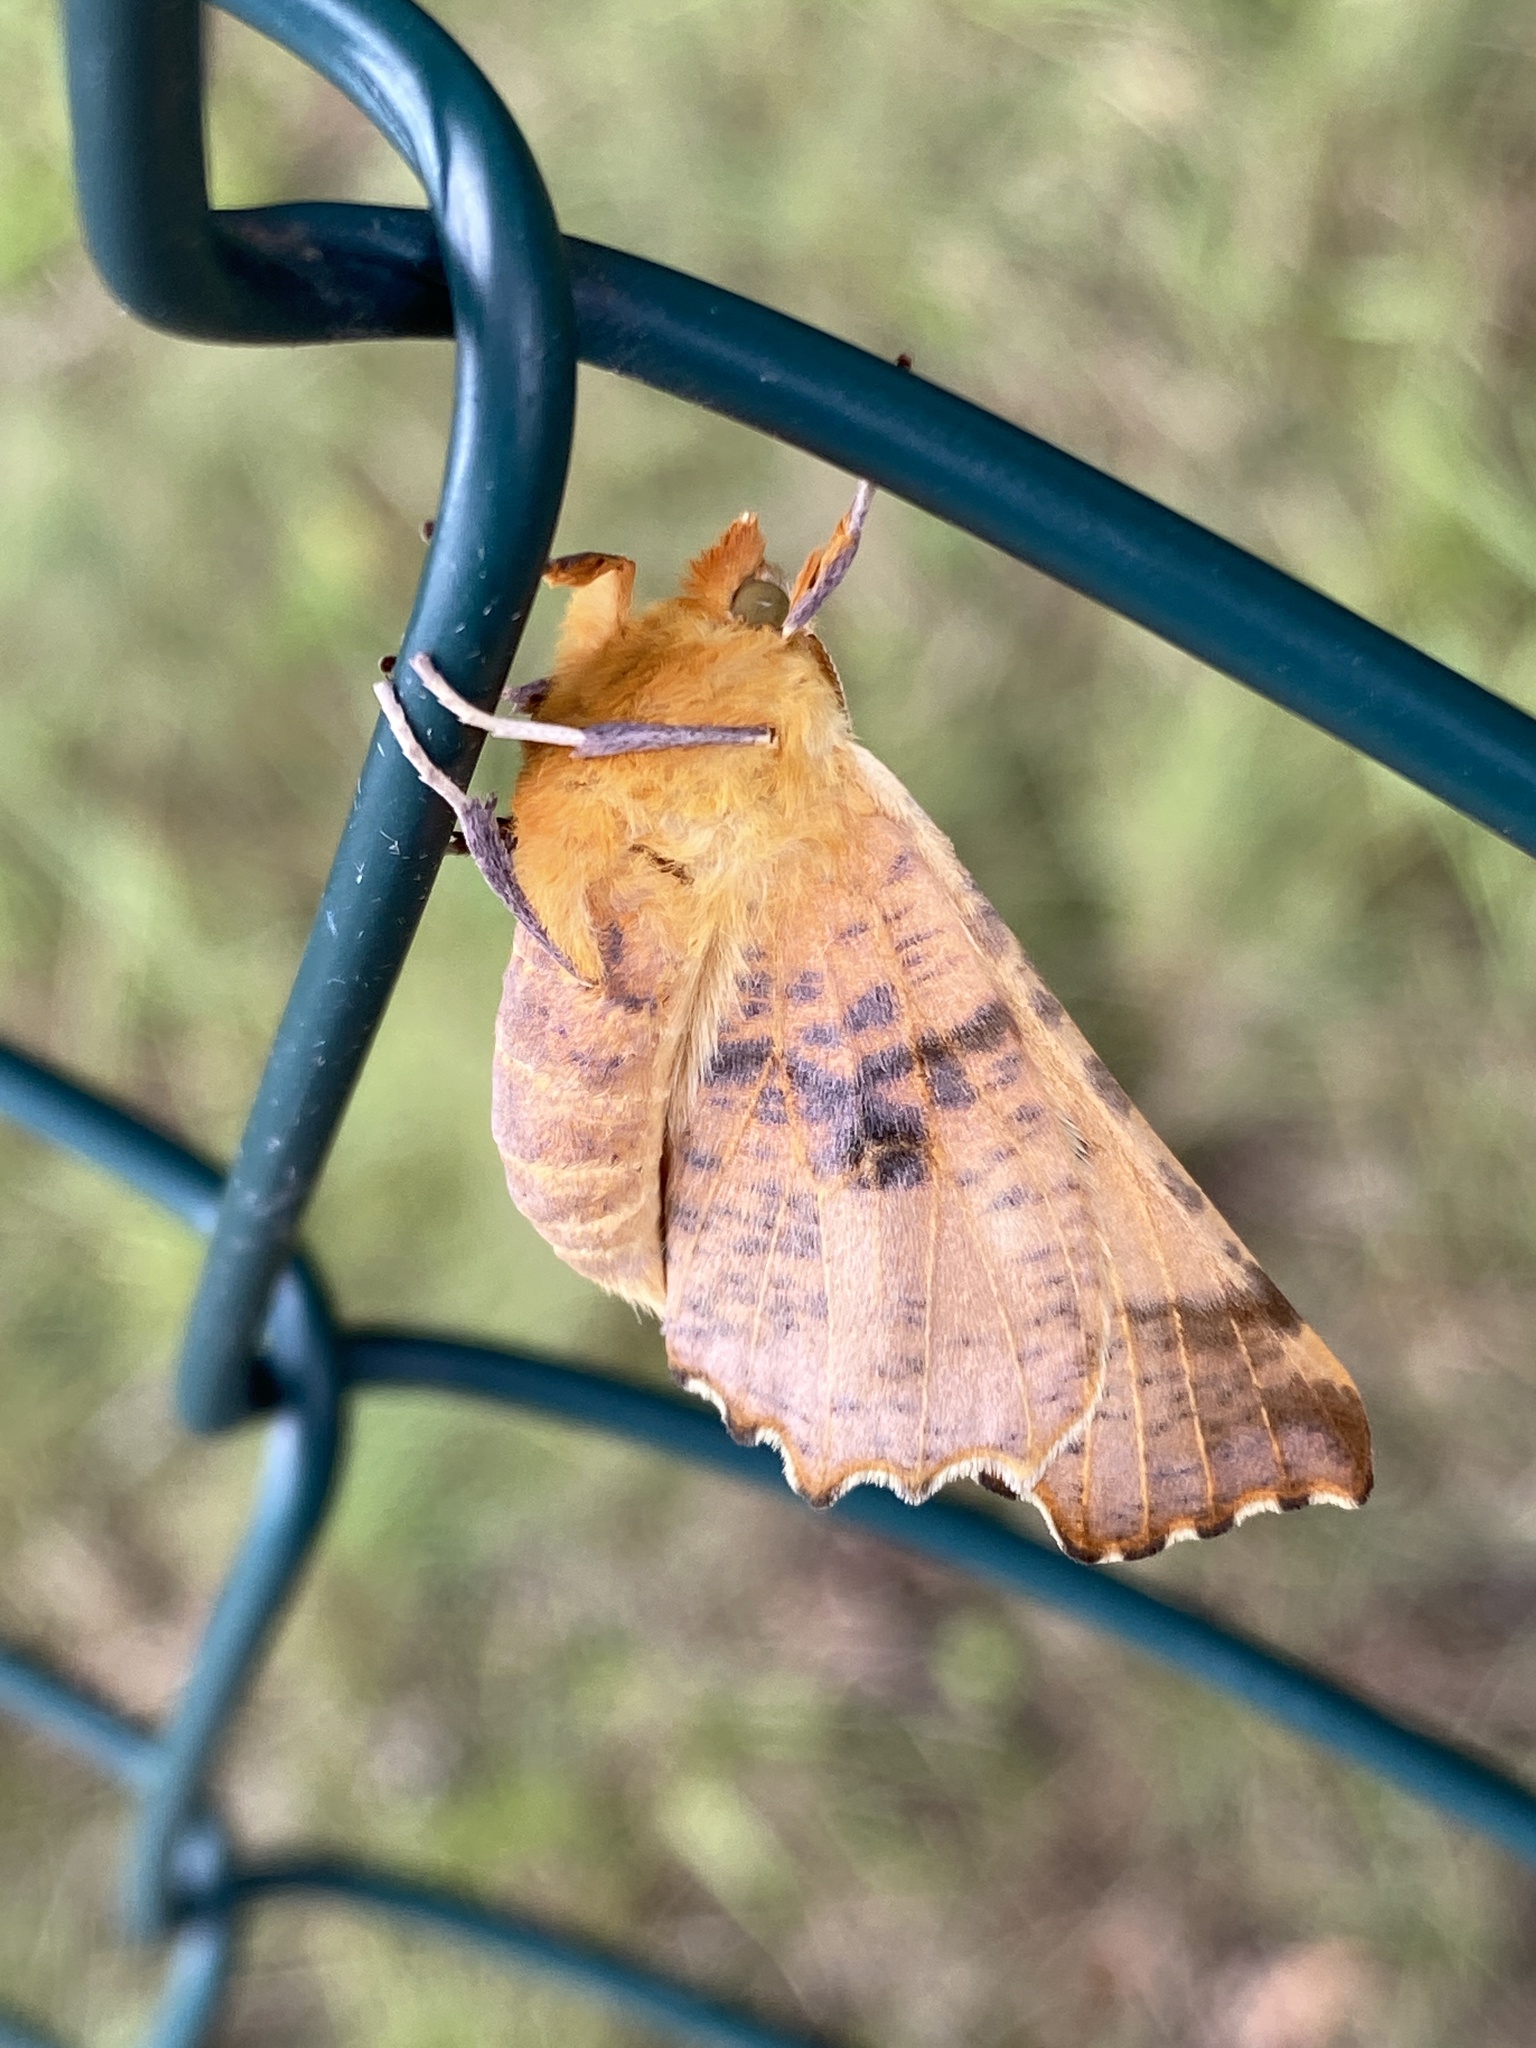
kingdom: Animalia
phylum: Arthropoda
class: Insecta
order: Lepidoptera
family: Geometridae
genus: Ennomos
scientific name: Ennomos autumnaria
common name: Large thorn
